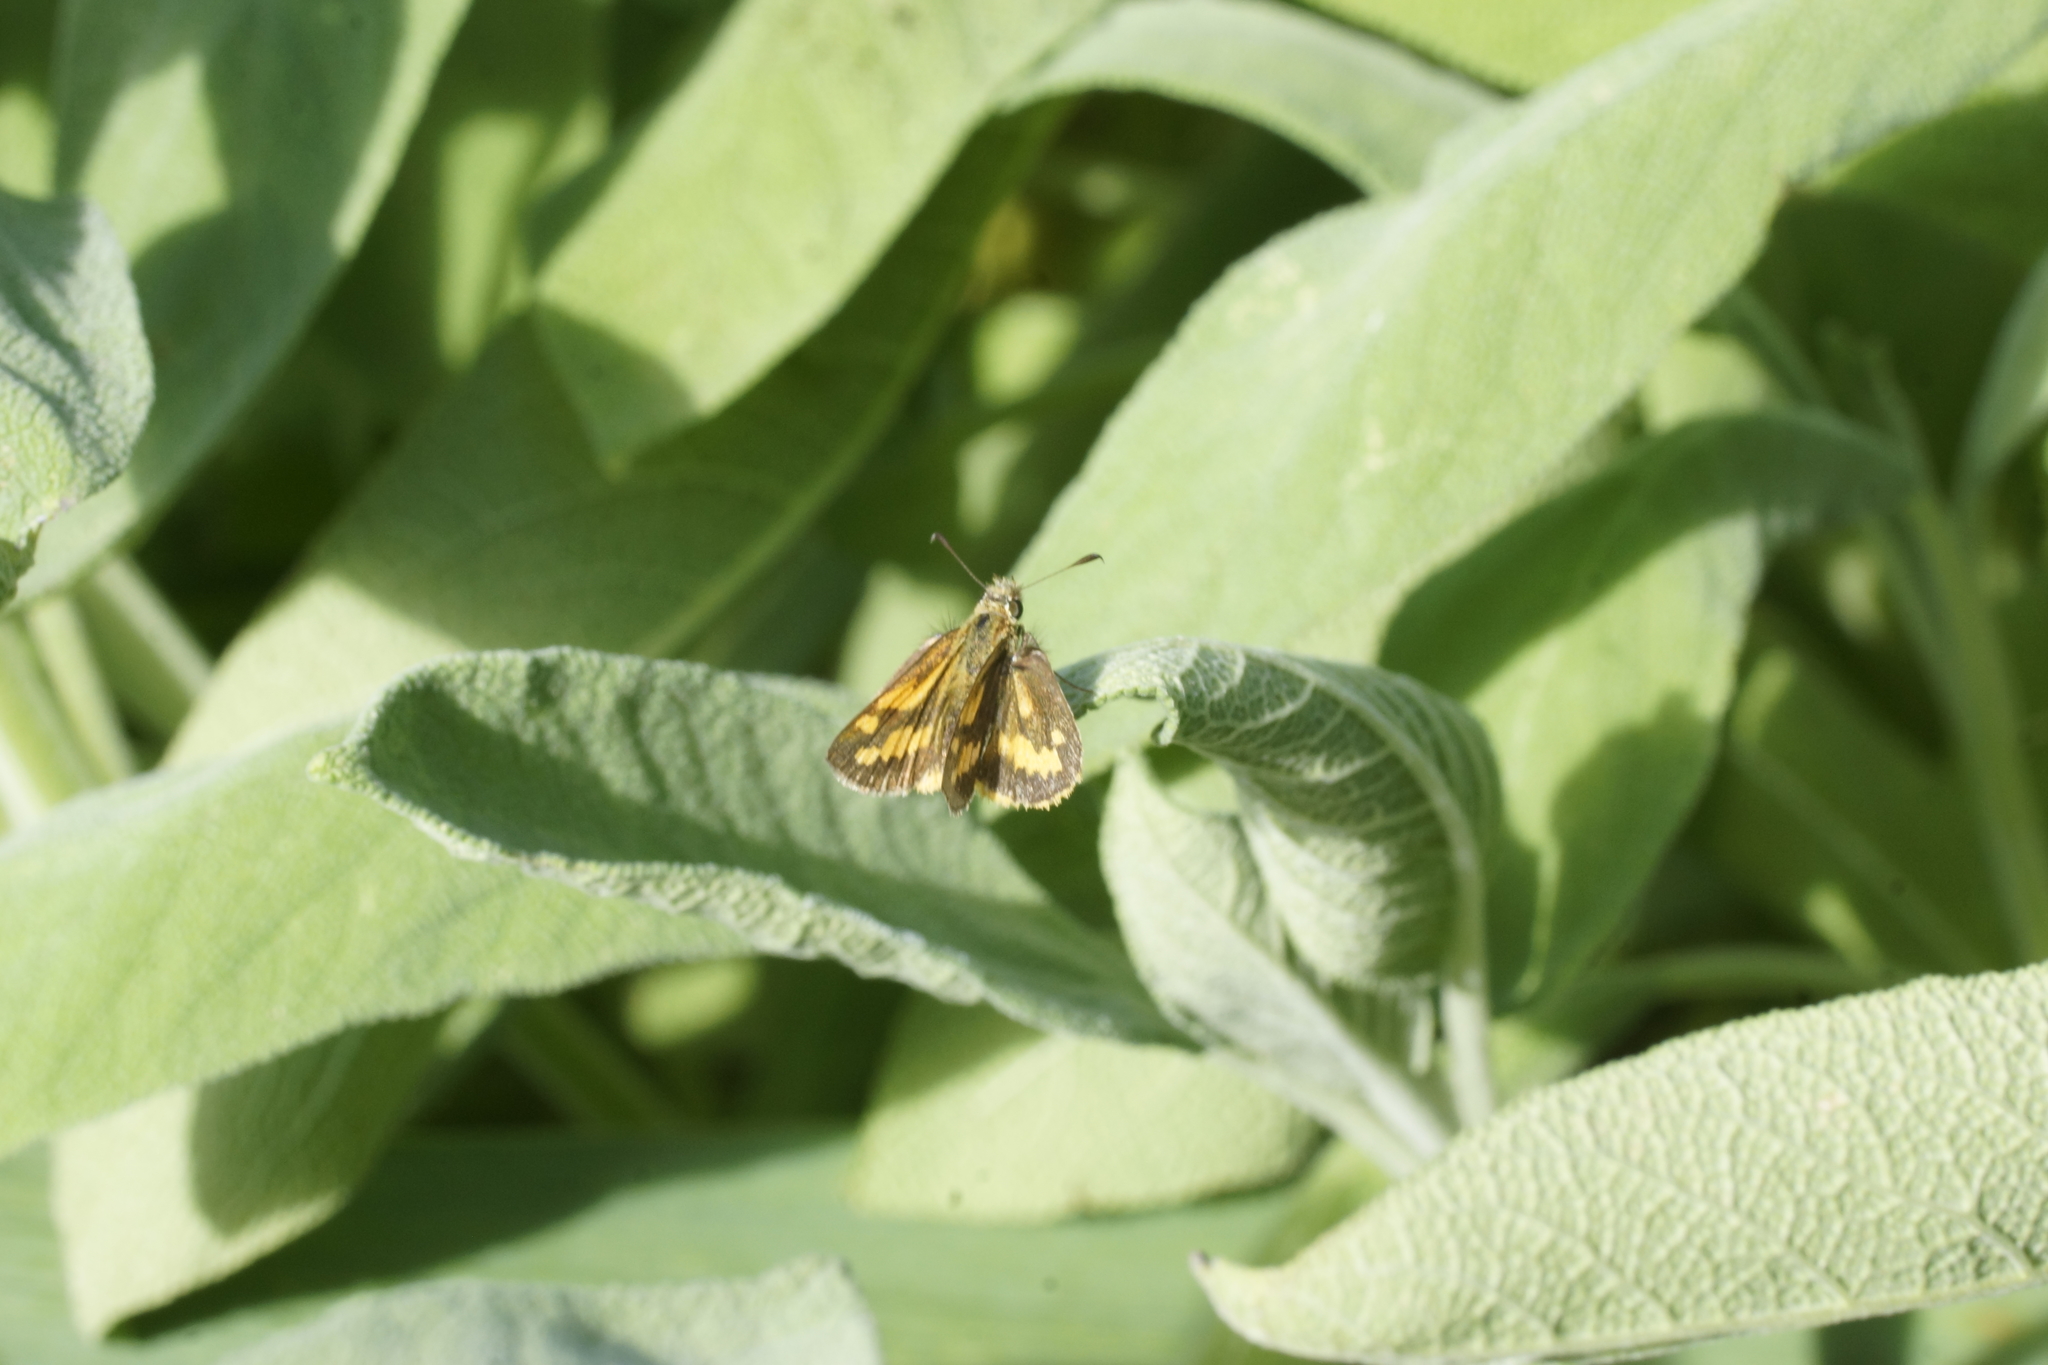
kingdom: Animalia
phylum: Arthropoda
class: Insecta
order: Lepidoptera
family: Hesperiidae
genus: Ocybadistes
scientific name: Ocybadistes walkeri
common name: Yellow-banded dart
